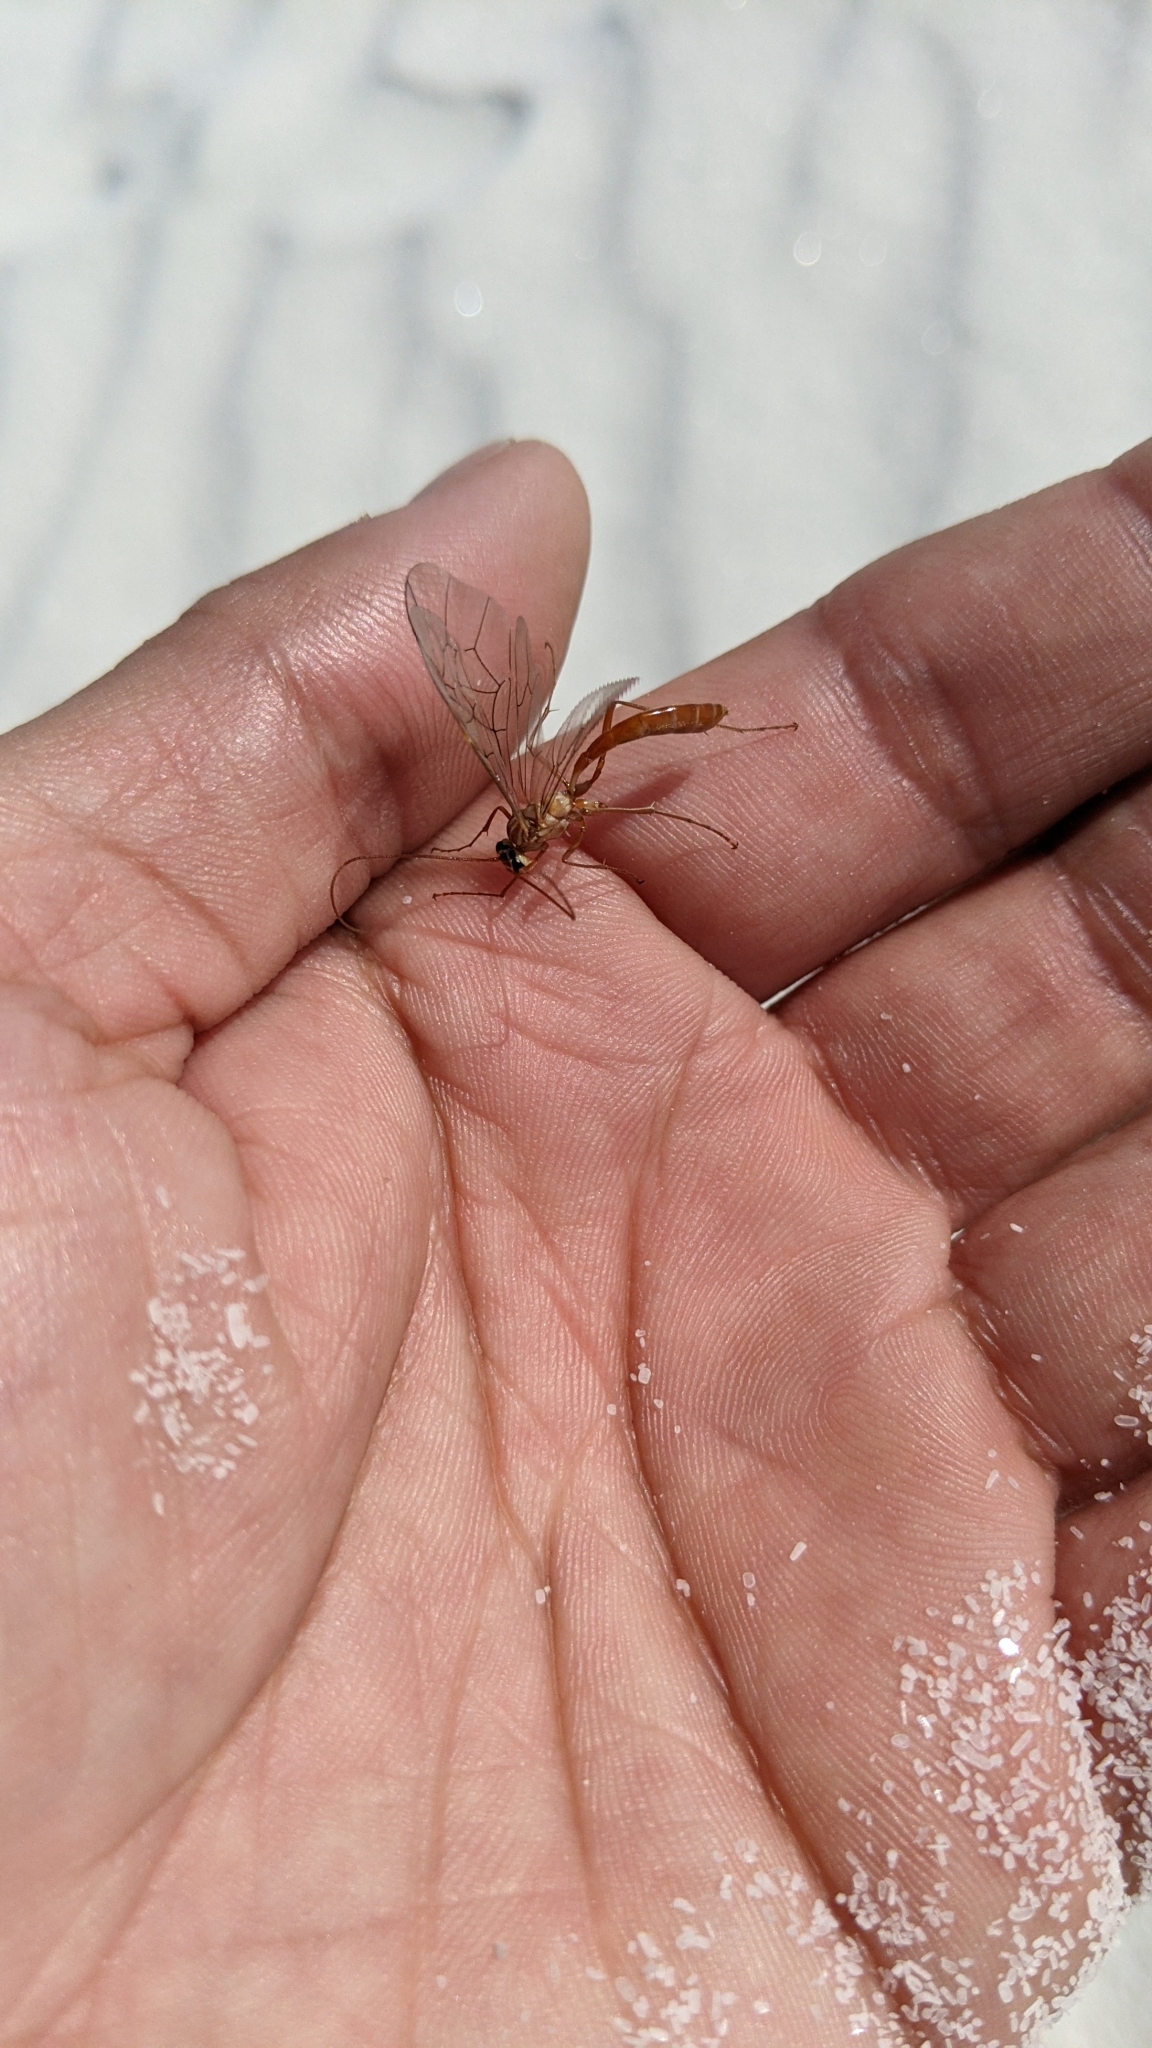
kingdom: Animalia
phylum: Arthropoda
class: Insecta
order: Hymenoptera
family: Ichneumonidae
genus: Ophion
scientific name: Ophion
